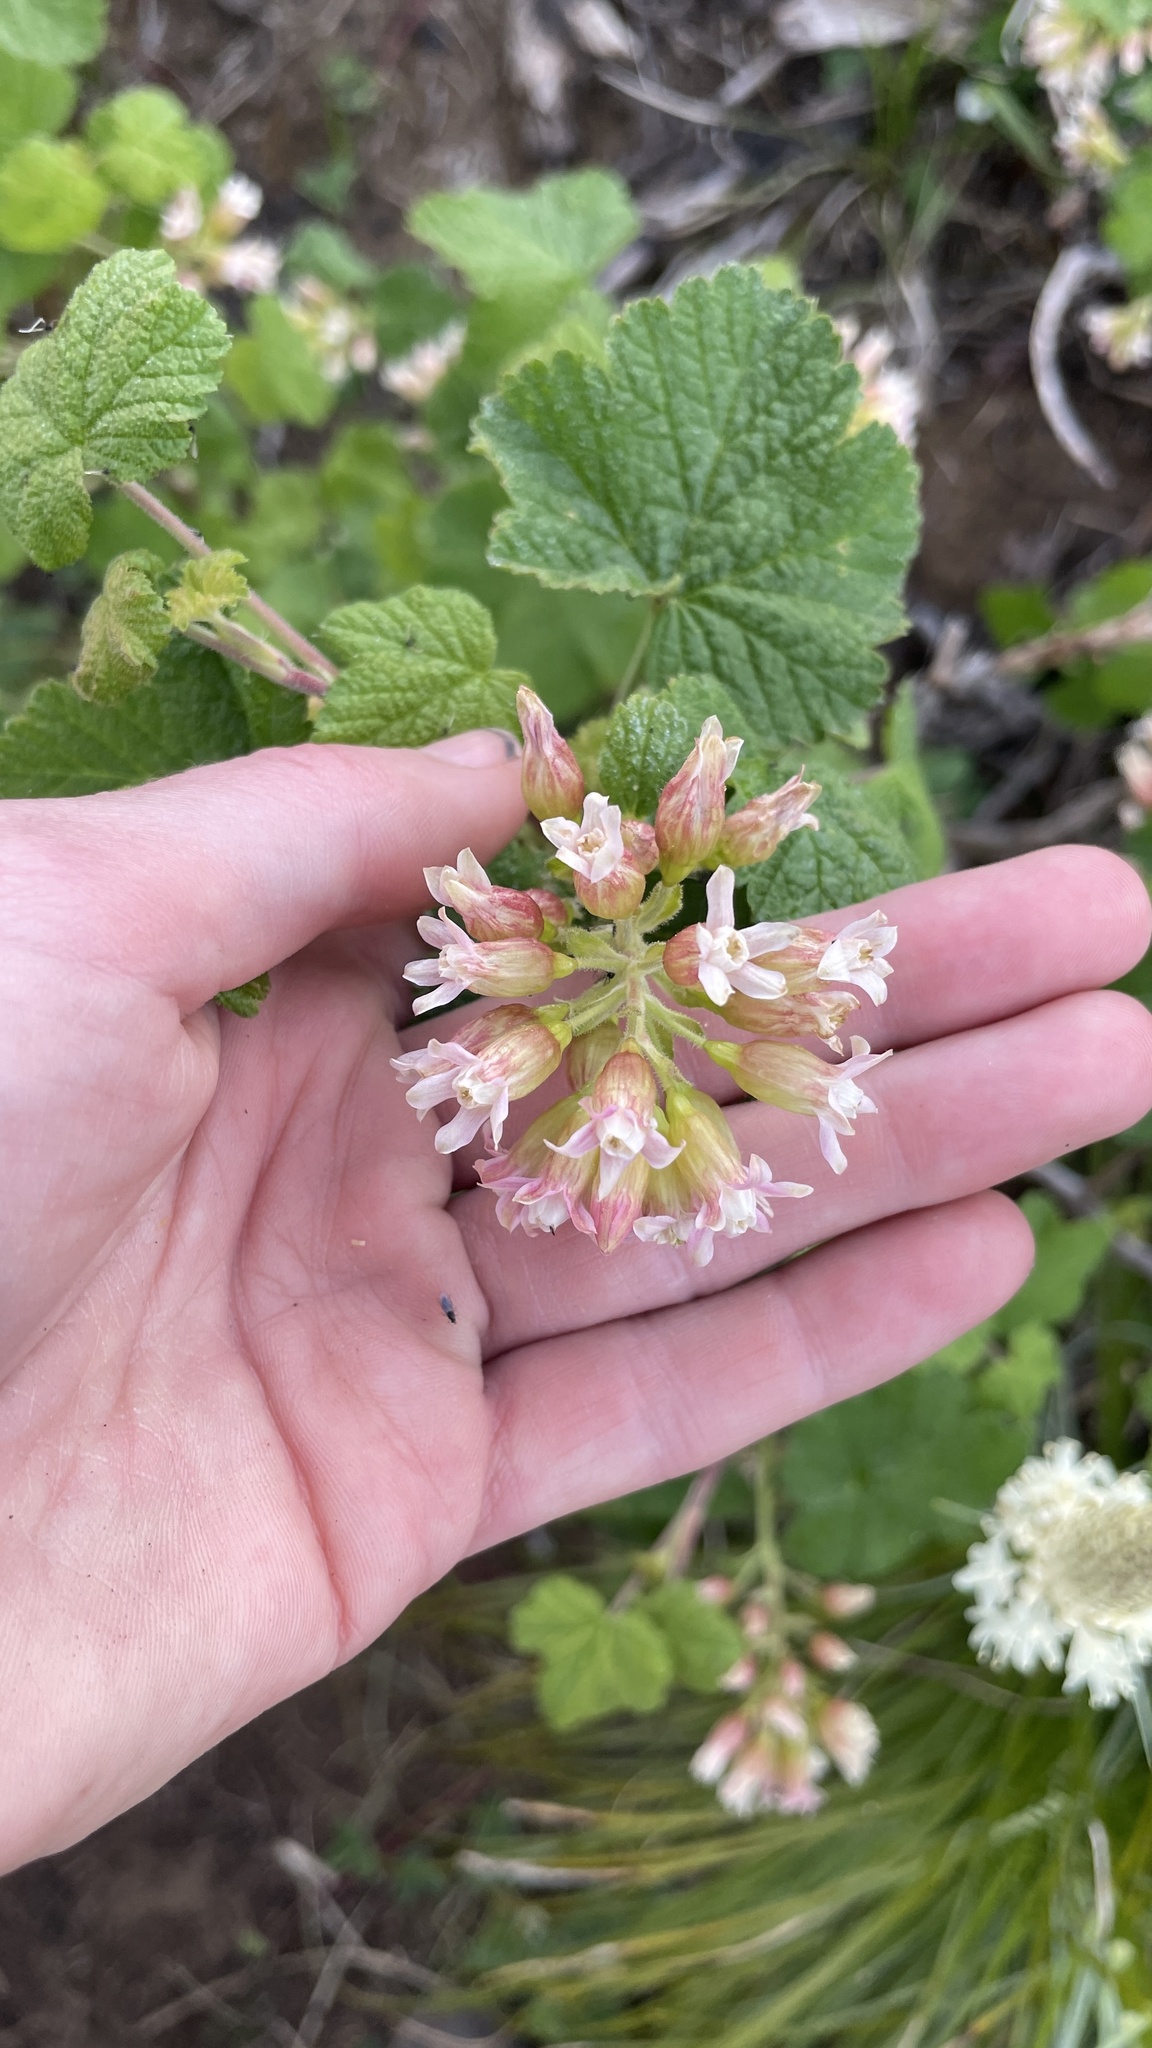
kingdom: Plantae
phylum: Tracheophyta
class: Magnoliopsida
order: Saxifragales
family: Grossulariaceae
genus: Ribes
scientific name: Ribes viscosissimum
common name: Sticky currant
